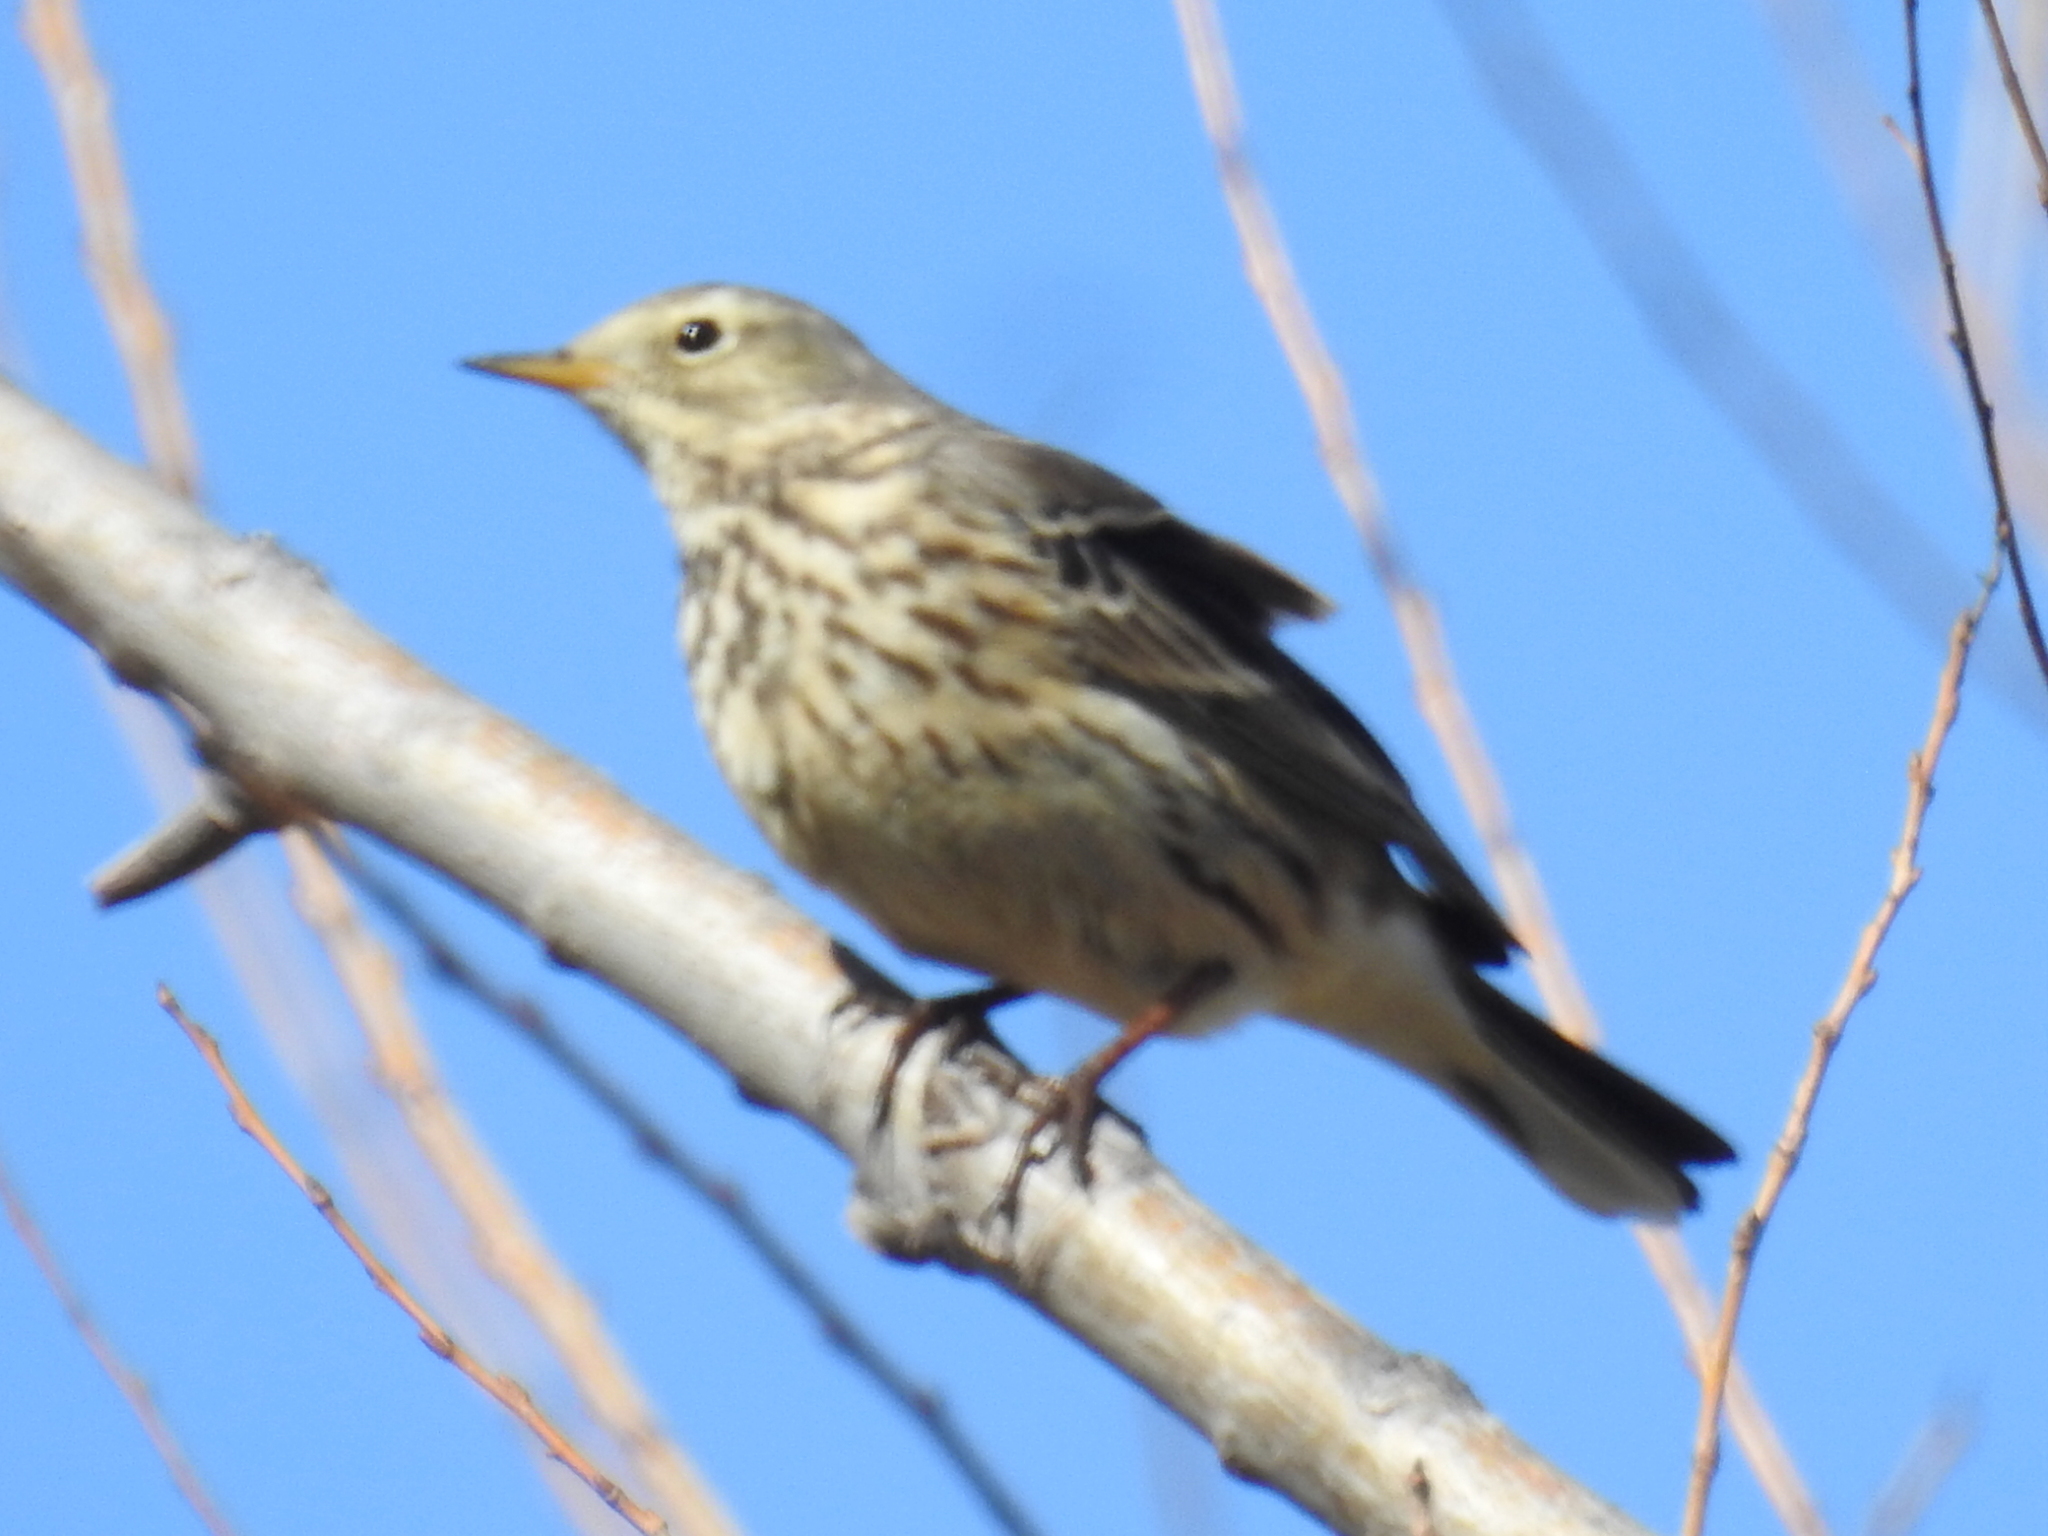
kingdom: Animalia
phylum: Chordata
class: Aves
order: Passeriformes
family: Motacillidae
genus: Anthus
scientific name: Anthus rubescens
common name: Buff-bellied pipit
